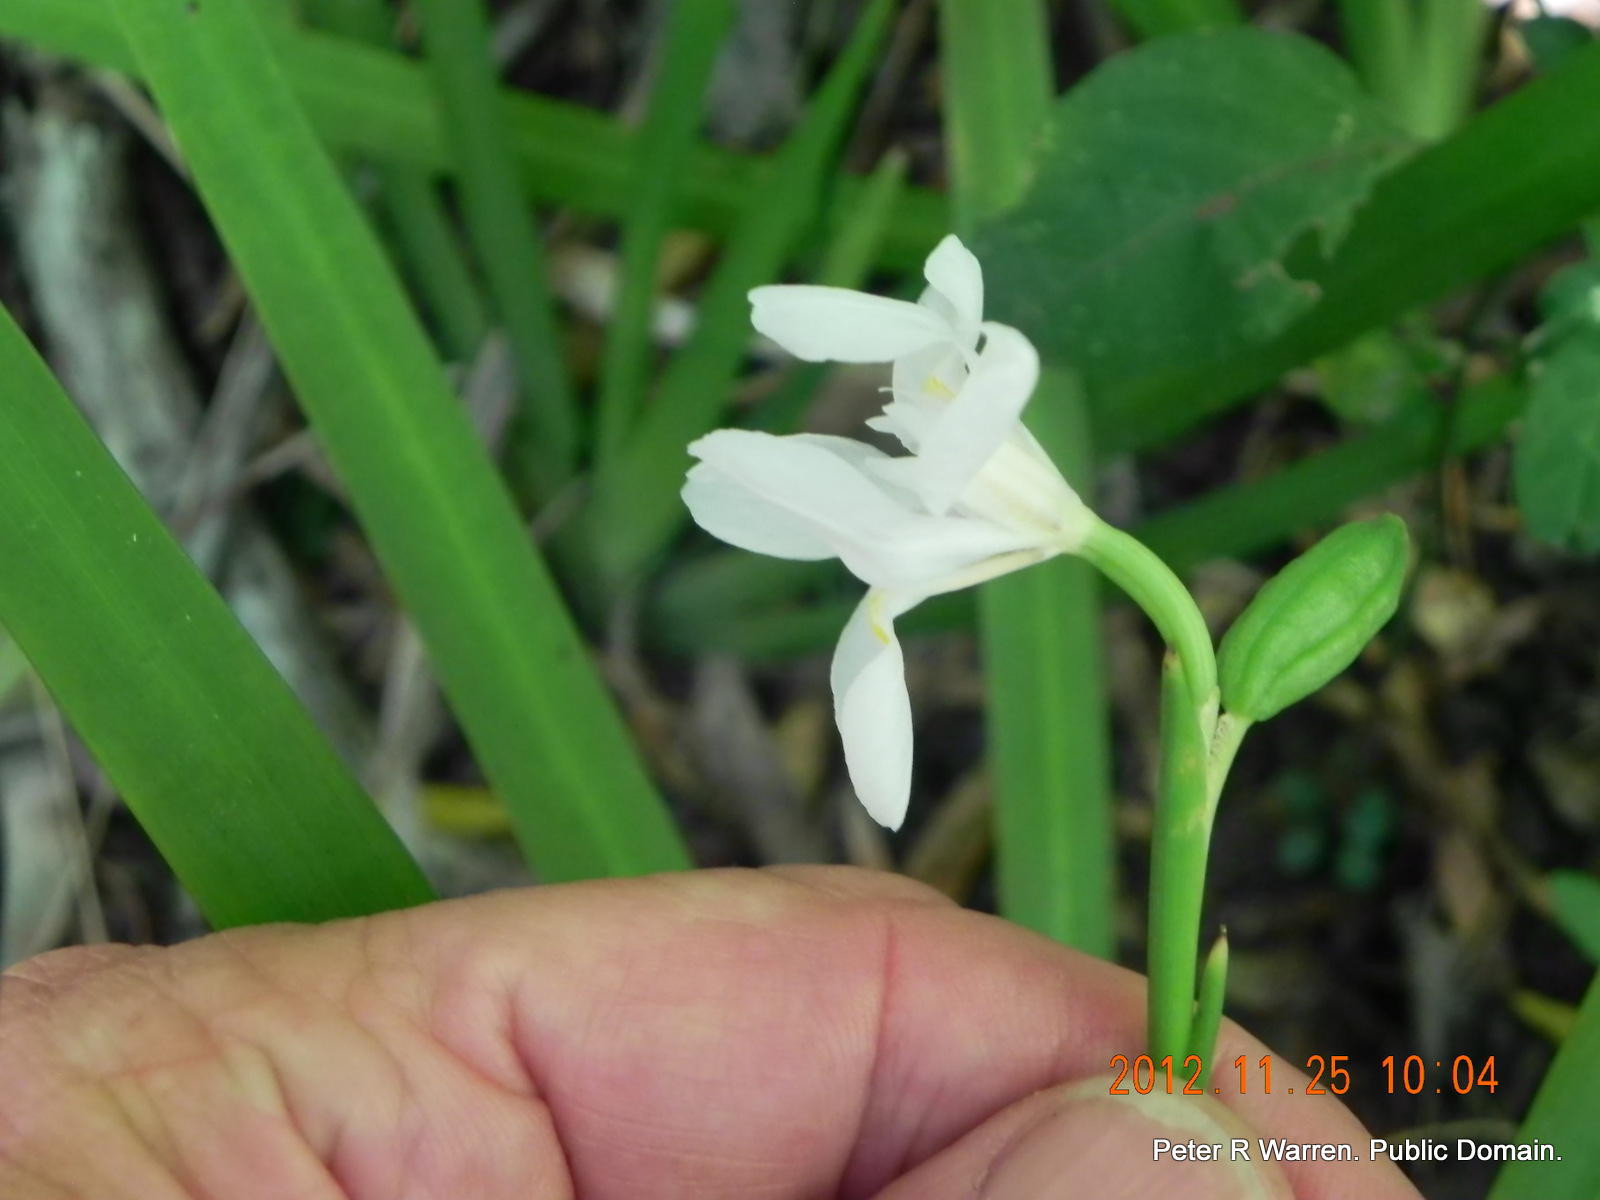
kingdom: Plantae
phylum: Tracheophyta
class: Liliopsida
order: Asparagales
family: Iridaceae
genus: Dietes
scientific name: Dietes iridioides
